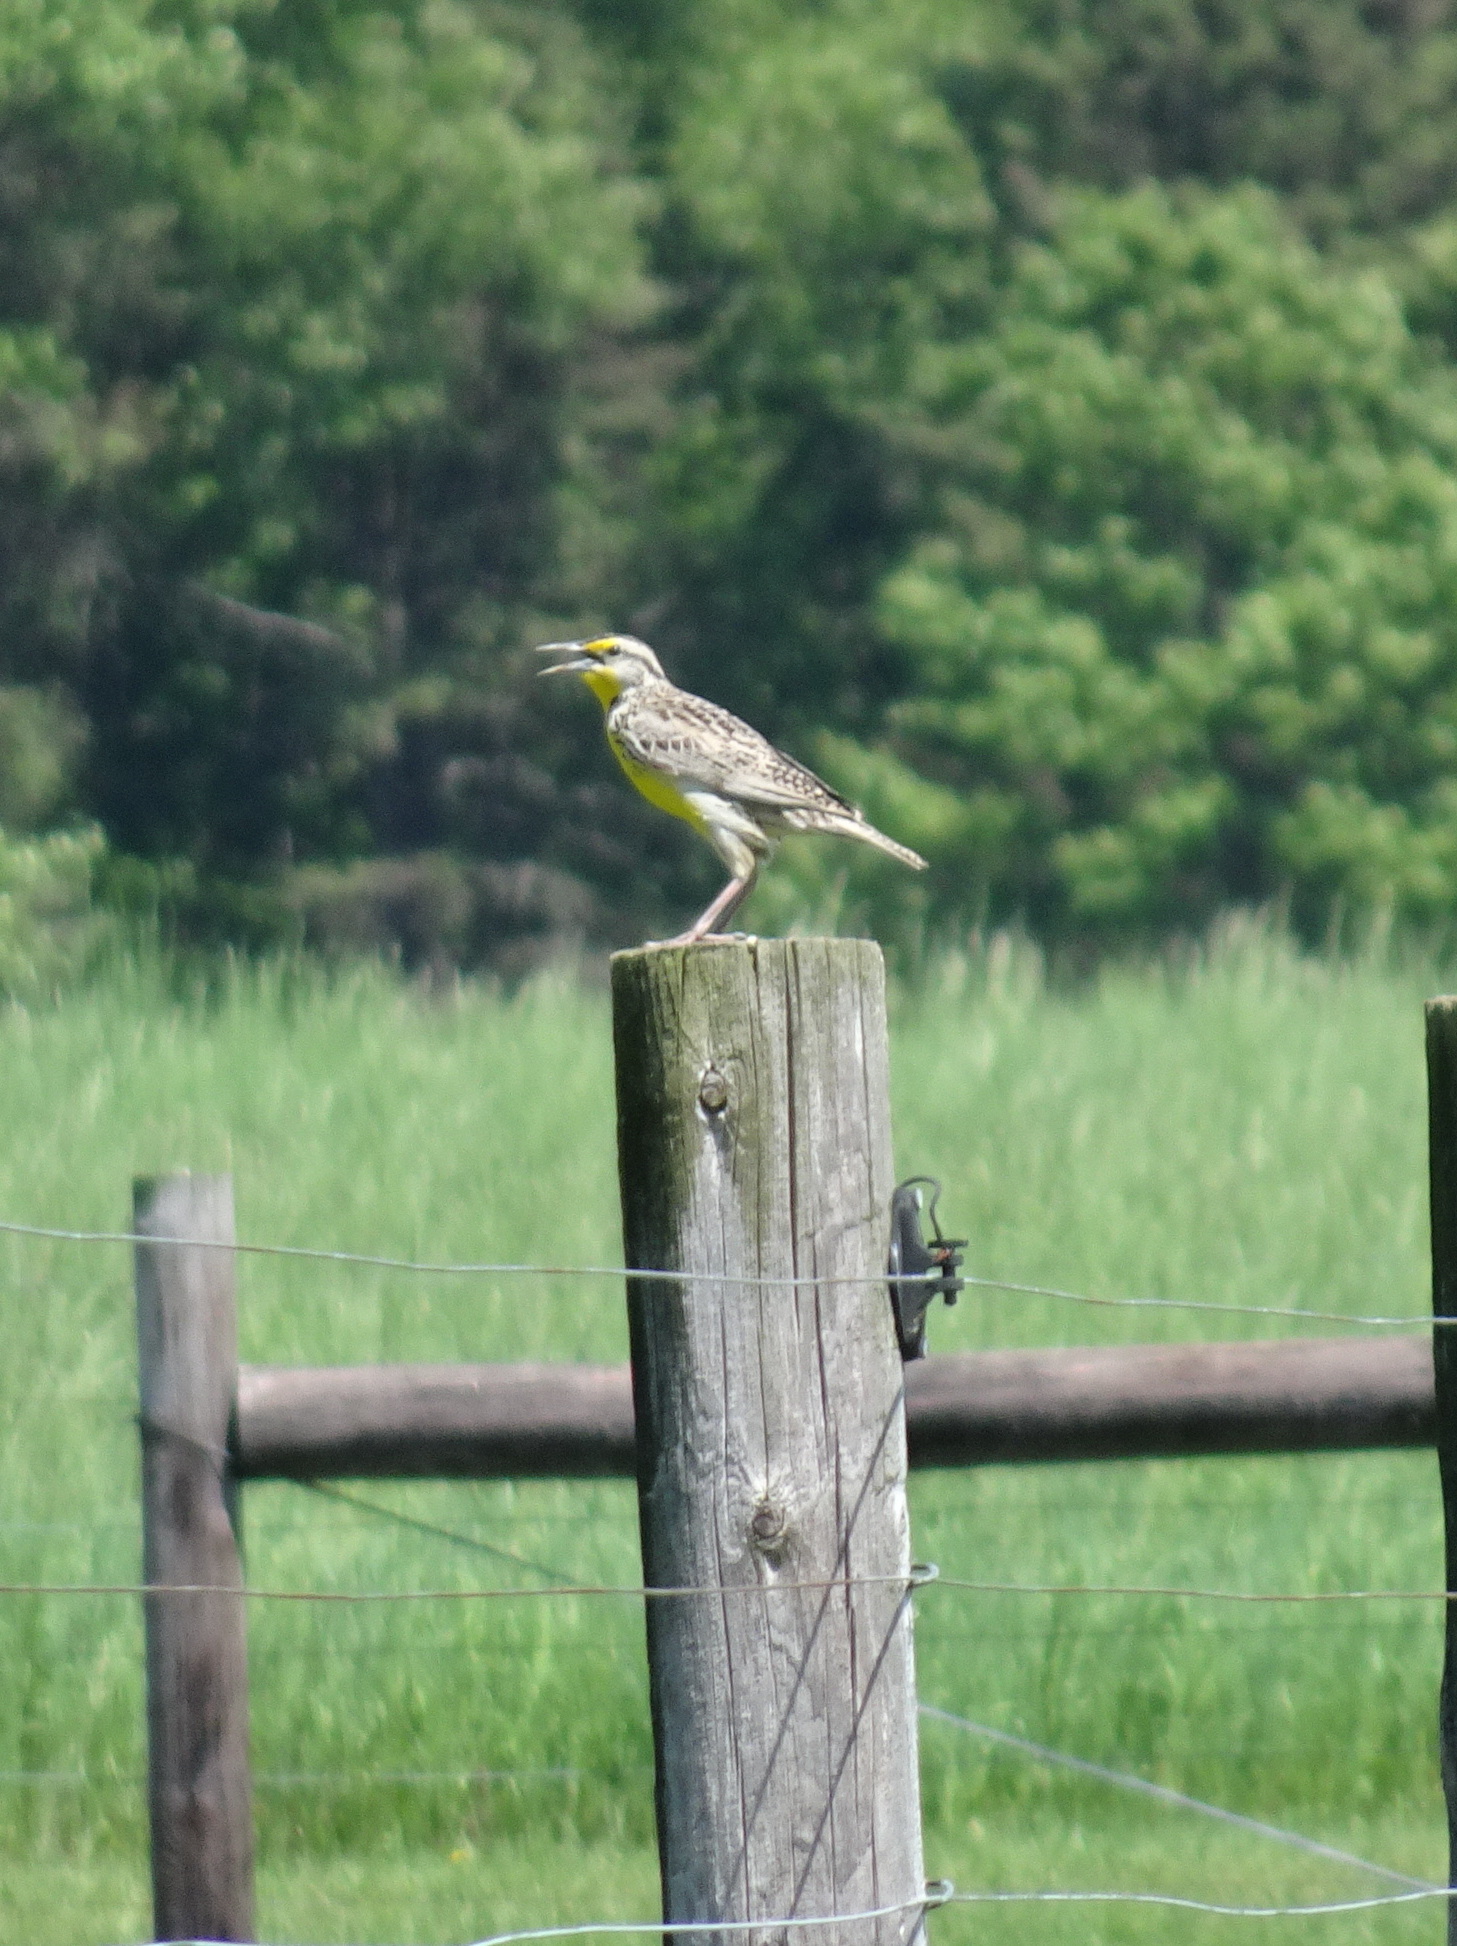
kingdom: Animalia
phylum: Chordata
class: Aves
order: Passeriformes
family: Icteridae
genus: Sturnella
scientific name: Sturnella neglecta
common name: Western meadowlark
